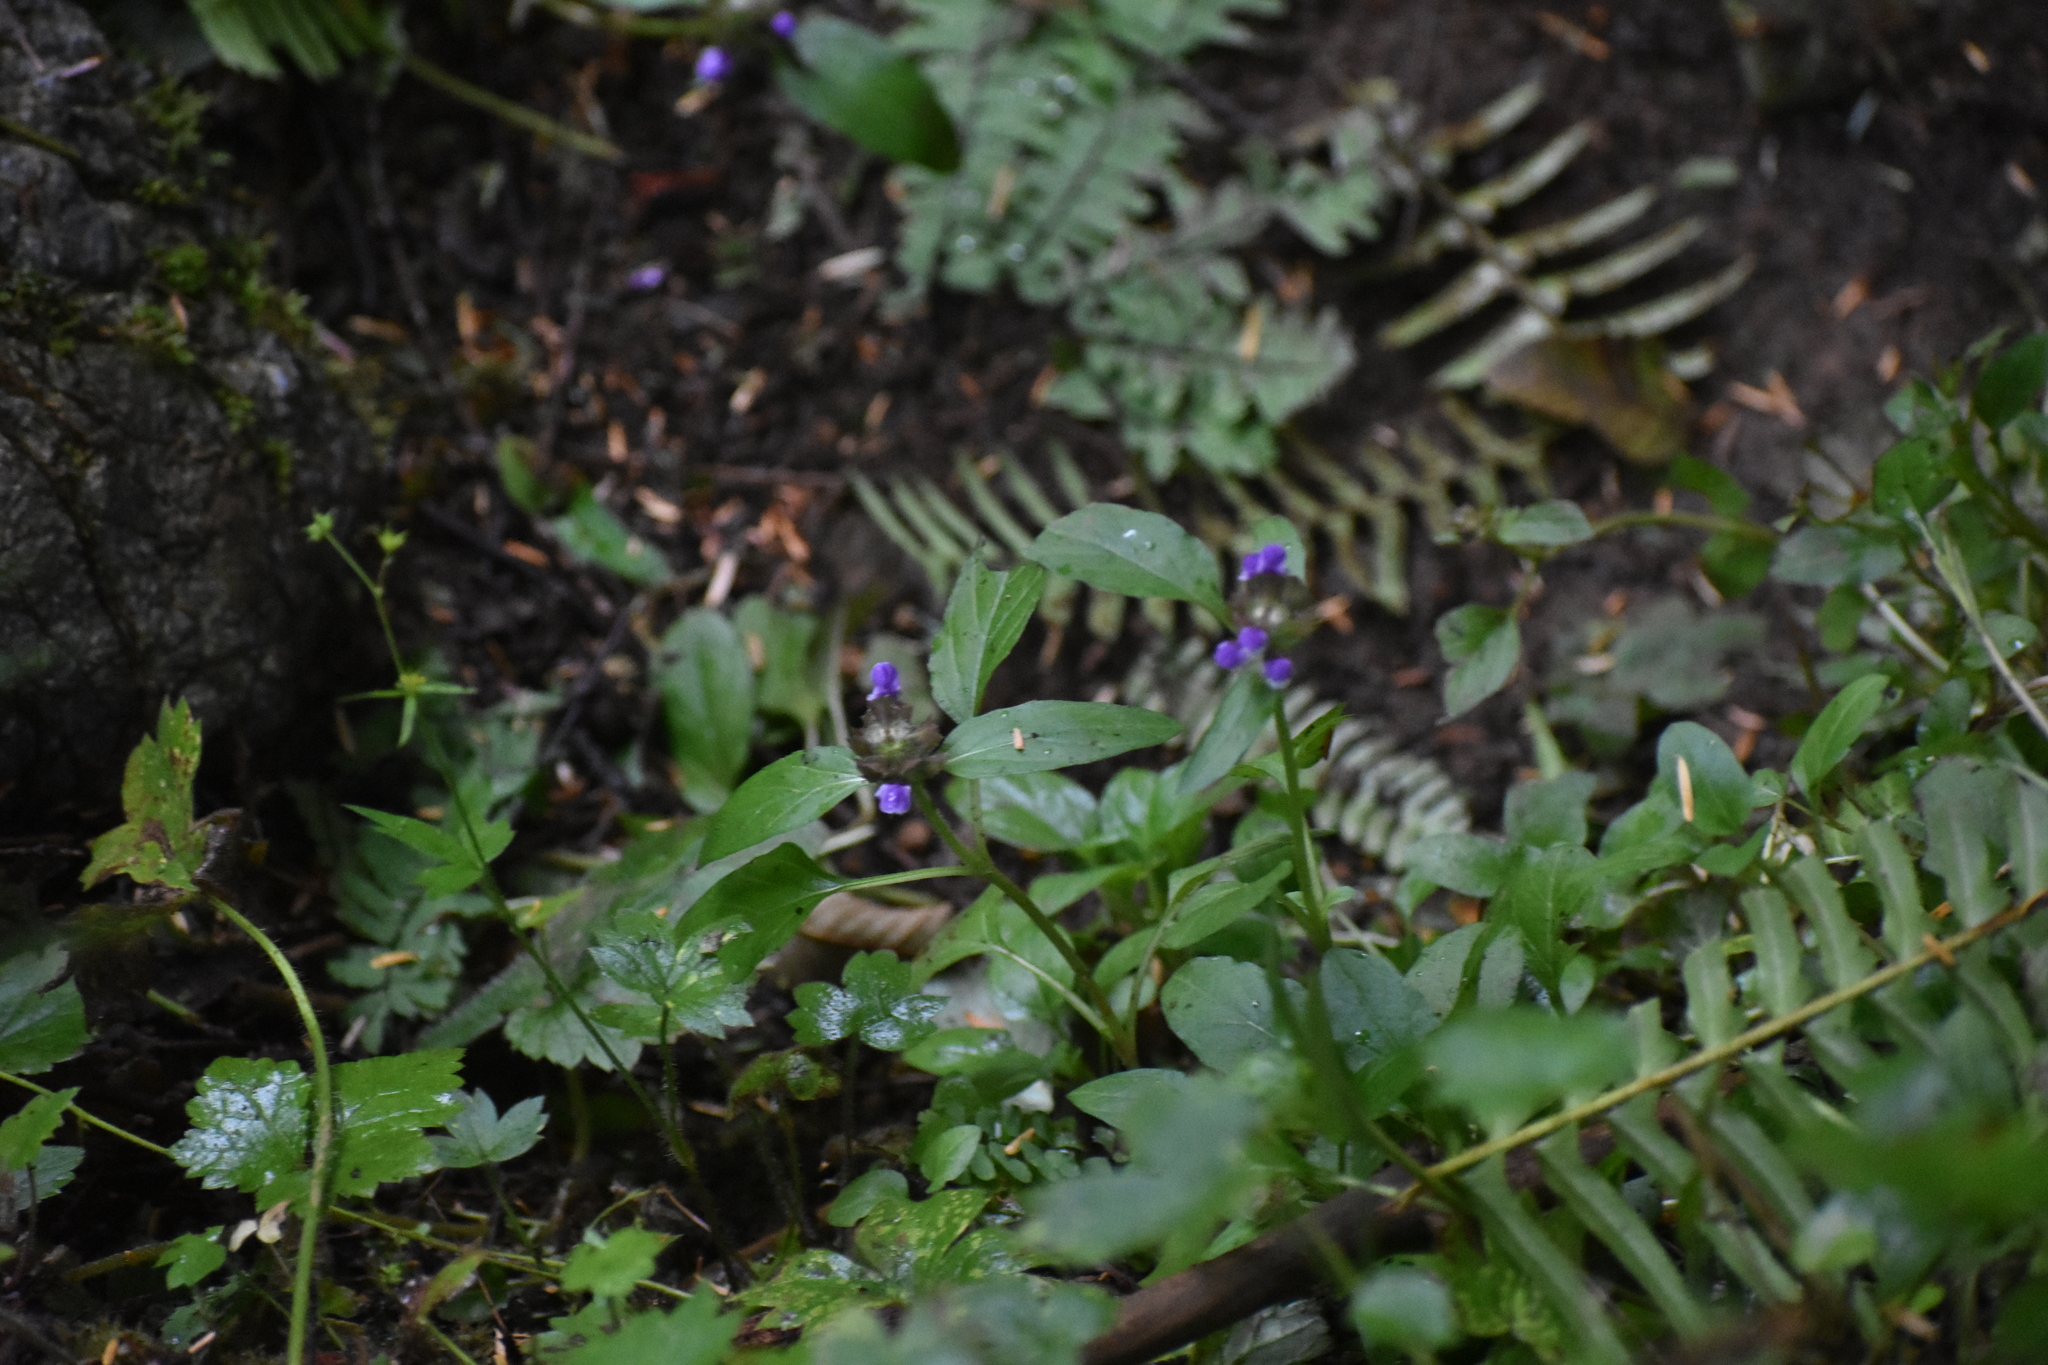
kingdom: Plantae
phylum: Tracheophyta
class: Magnoliopsida
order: Lamiales
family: Lamiaceae
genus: Prunella
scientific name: Prunella vulgaris
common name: Heal-all
